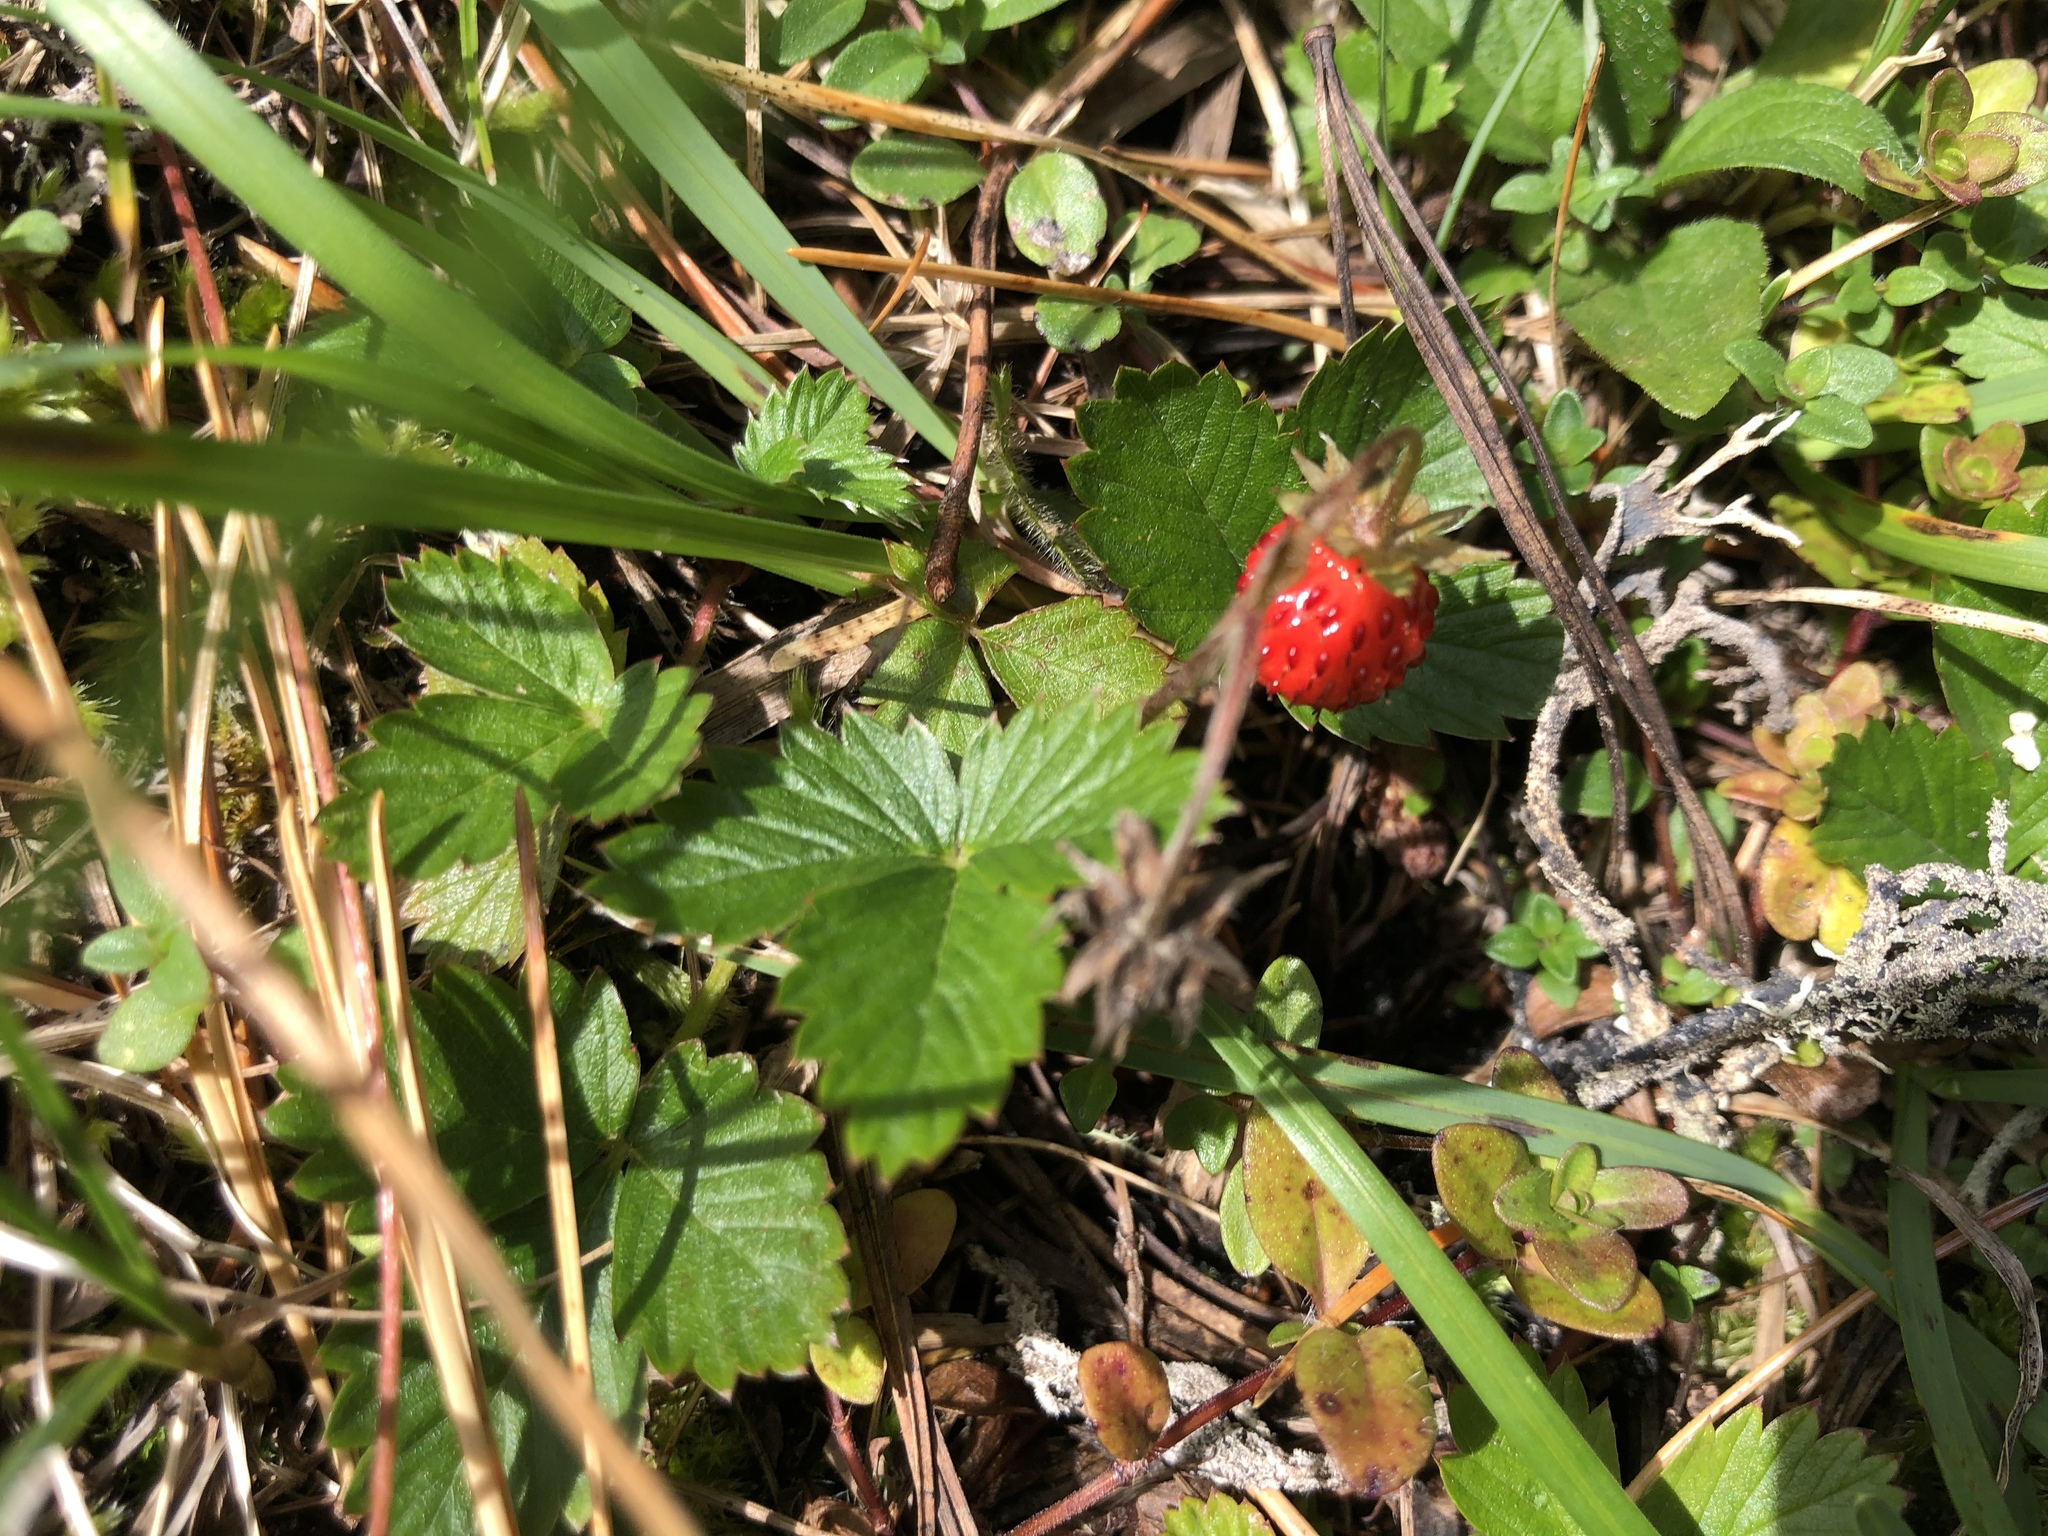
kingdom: Plantae
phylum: Tracheophyta
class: Magnoliopsida
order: Rosales
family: Rosaceae
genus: Fragaria
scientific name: Fragaria vesca
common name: Wild strawberry
